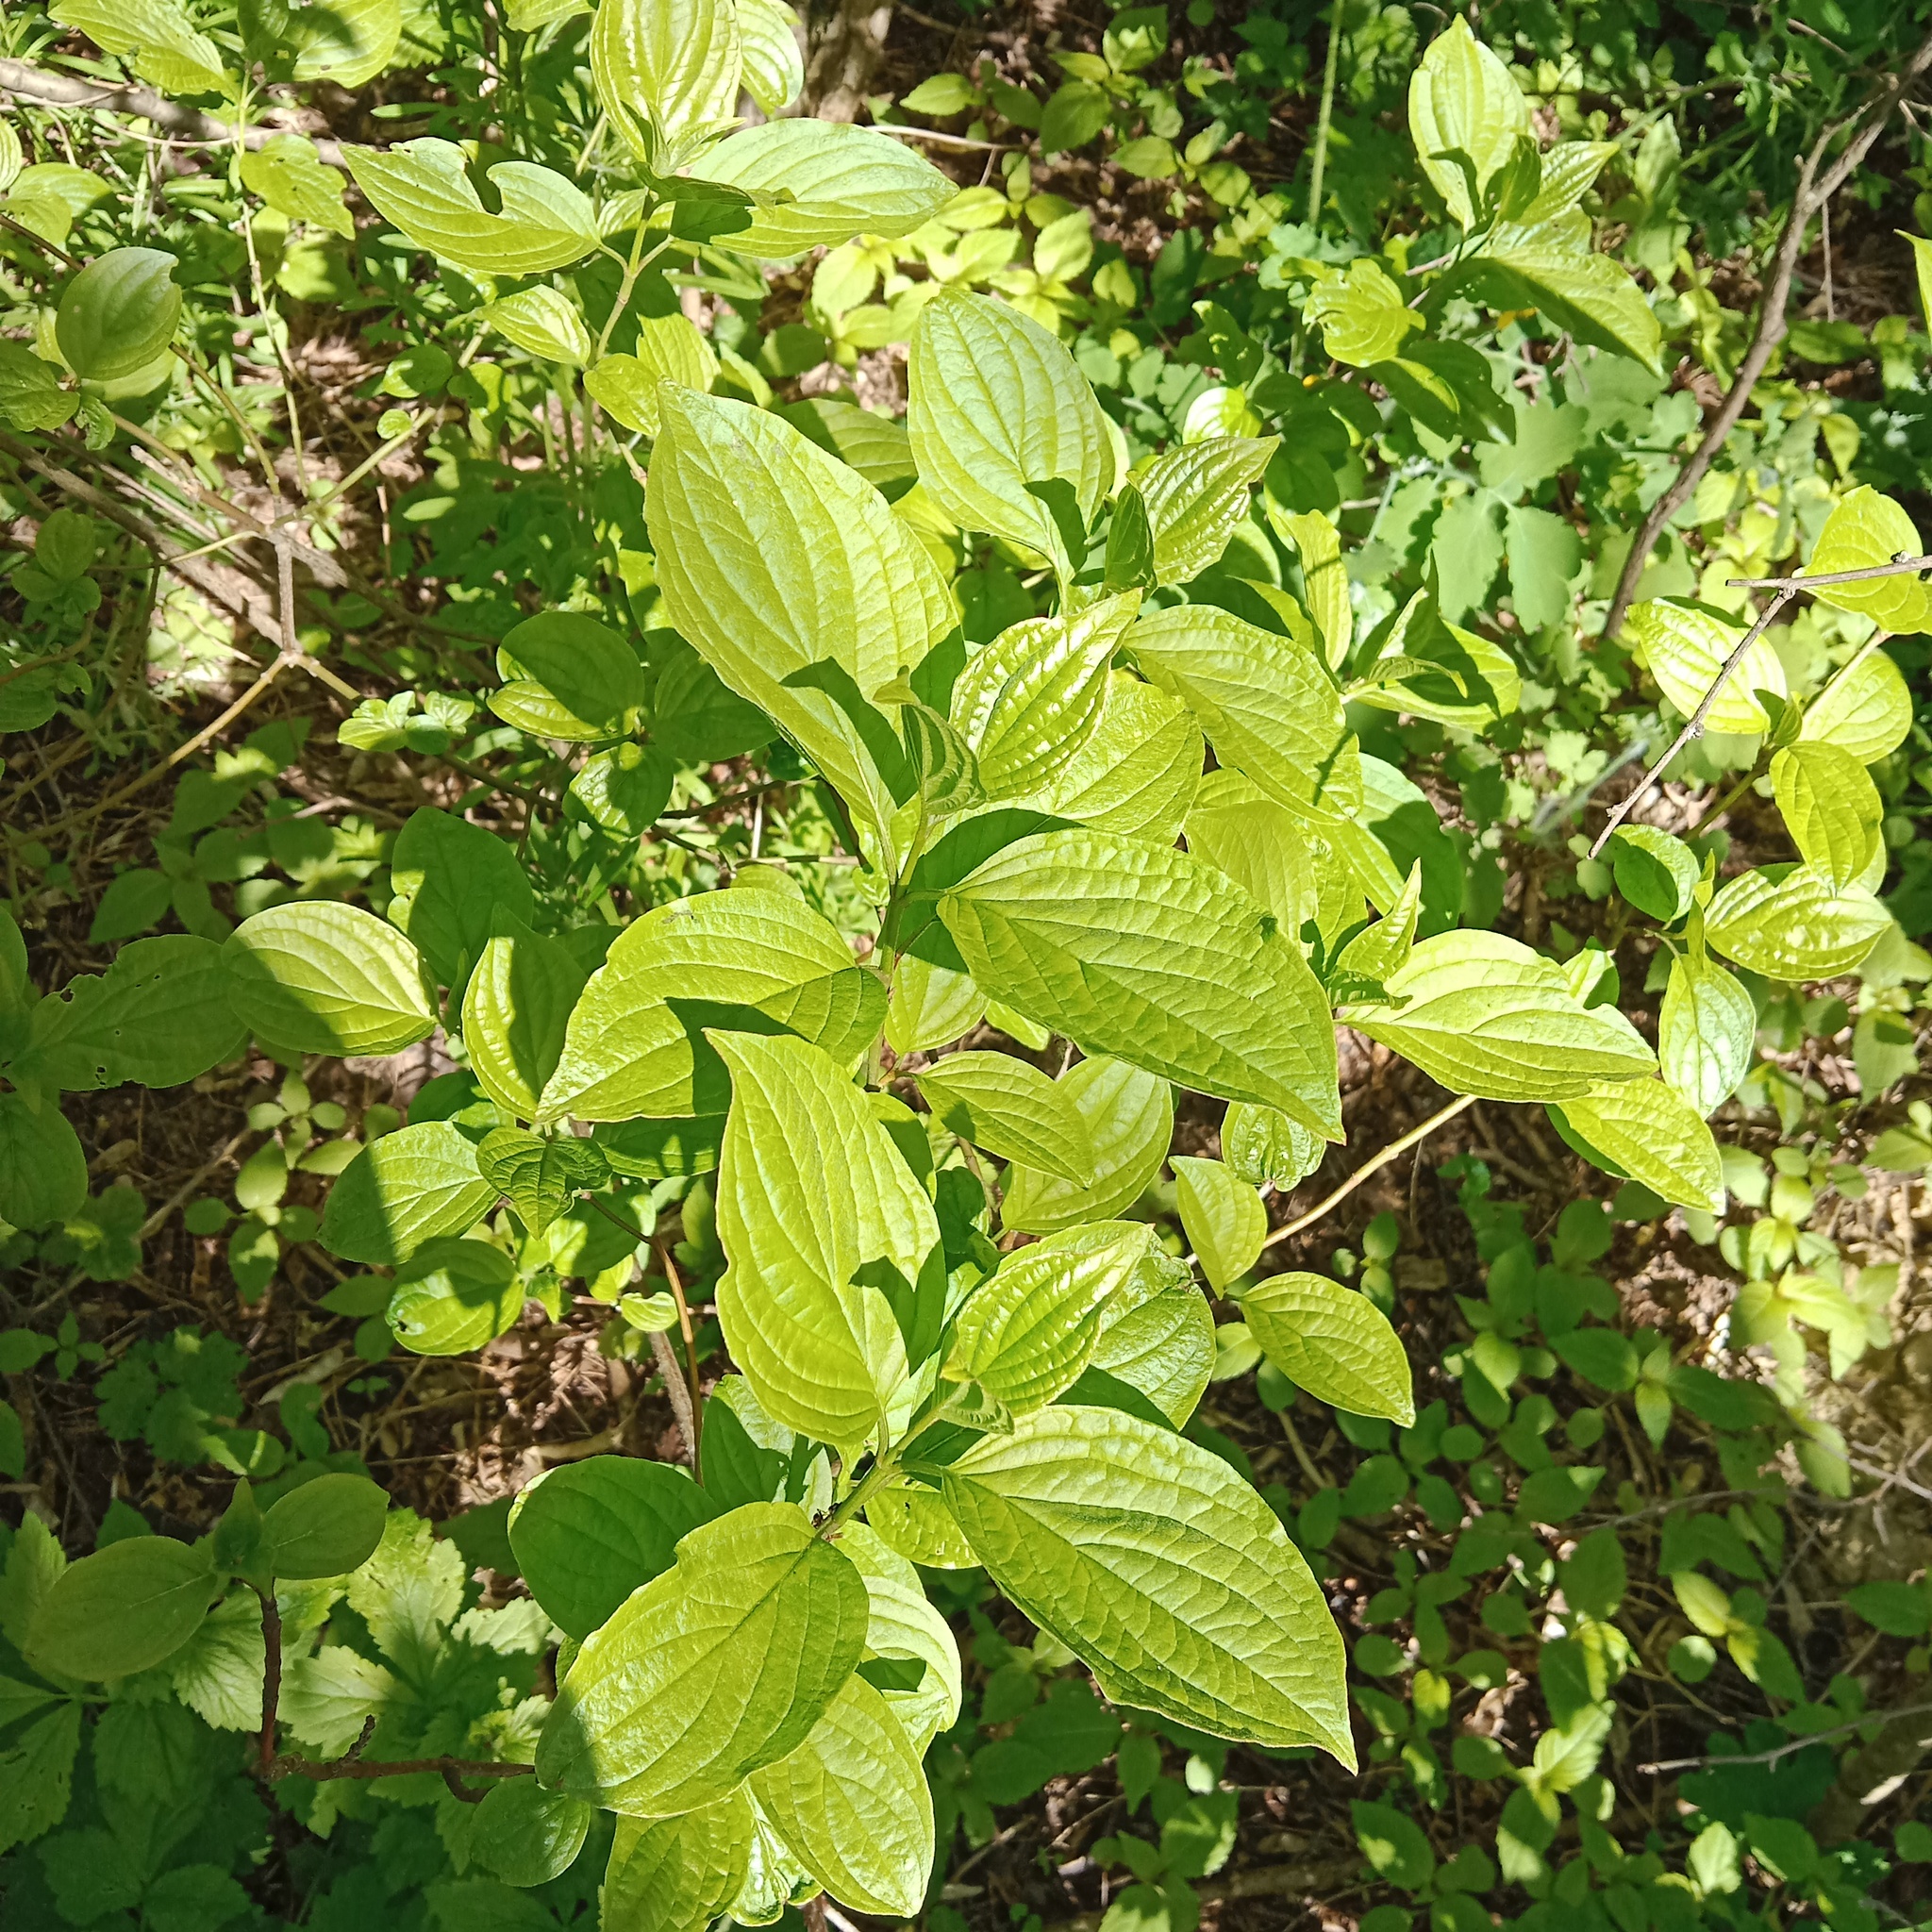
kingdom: Plantae
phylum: Tracheophyta
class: Magnoliopsida
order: Cornales
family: Cornaceae
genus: Cornus
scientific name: Cornus sanguinea
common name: Dogwood
